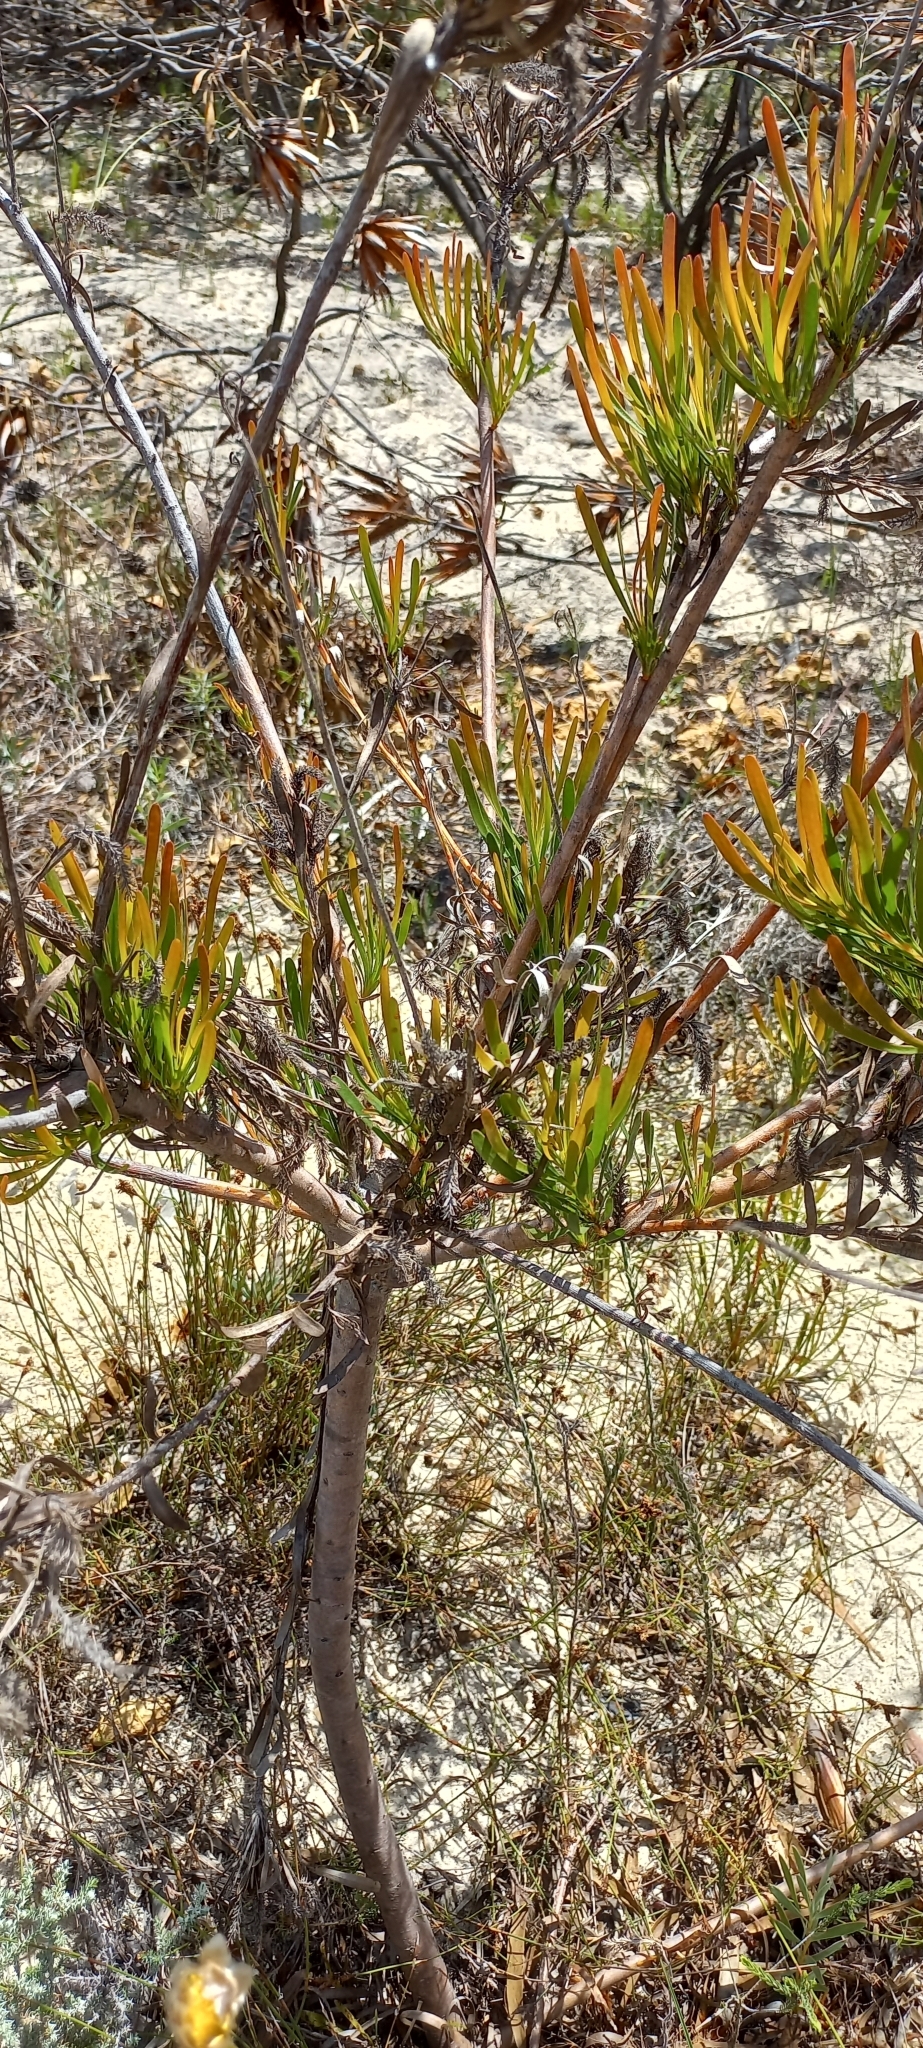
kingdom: Plantae
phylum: Tracheophyta
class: Magnoliopsida
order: Proteales
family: Proteaceae
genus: Aulax
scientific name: Aulax umbellata
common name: Broad-leaf featherbush
